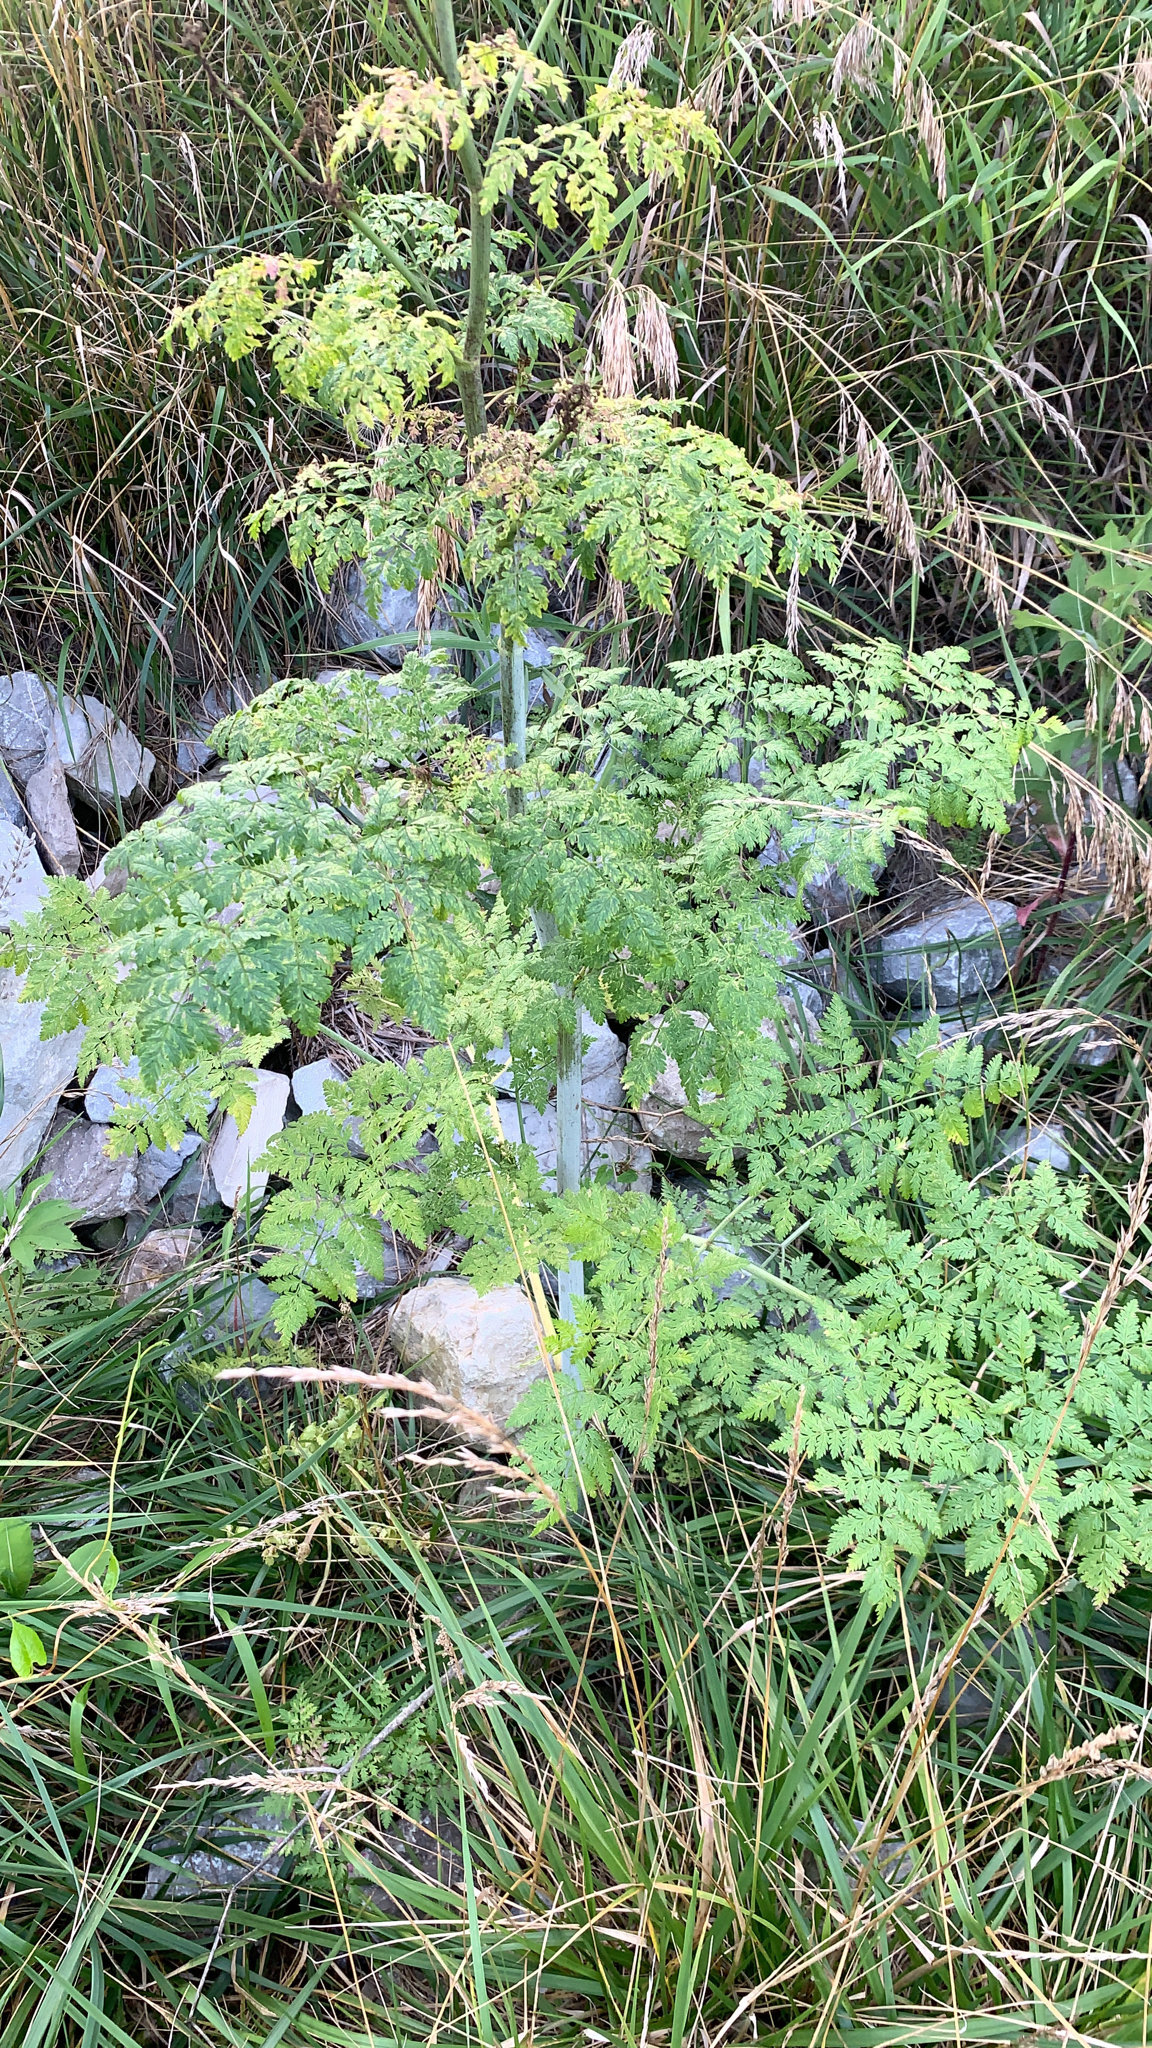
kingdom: Plantae
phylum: Tracheophyta
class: Magnoliopsida
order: Apiales
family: Apiaceae
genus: Conium
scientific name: Conium maculatum
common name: Hemlock
